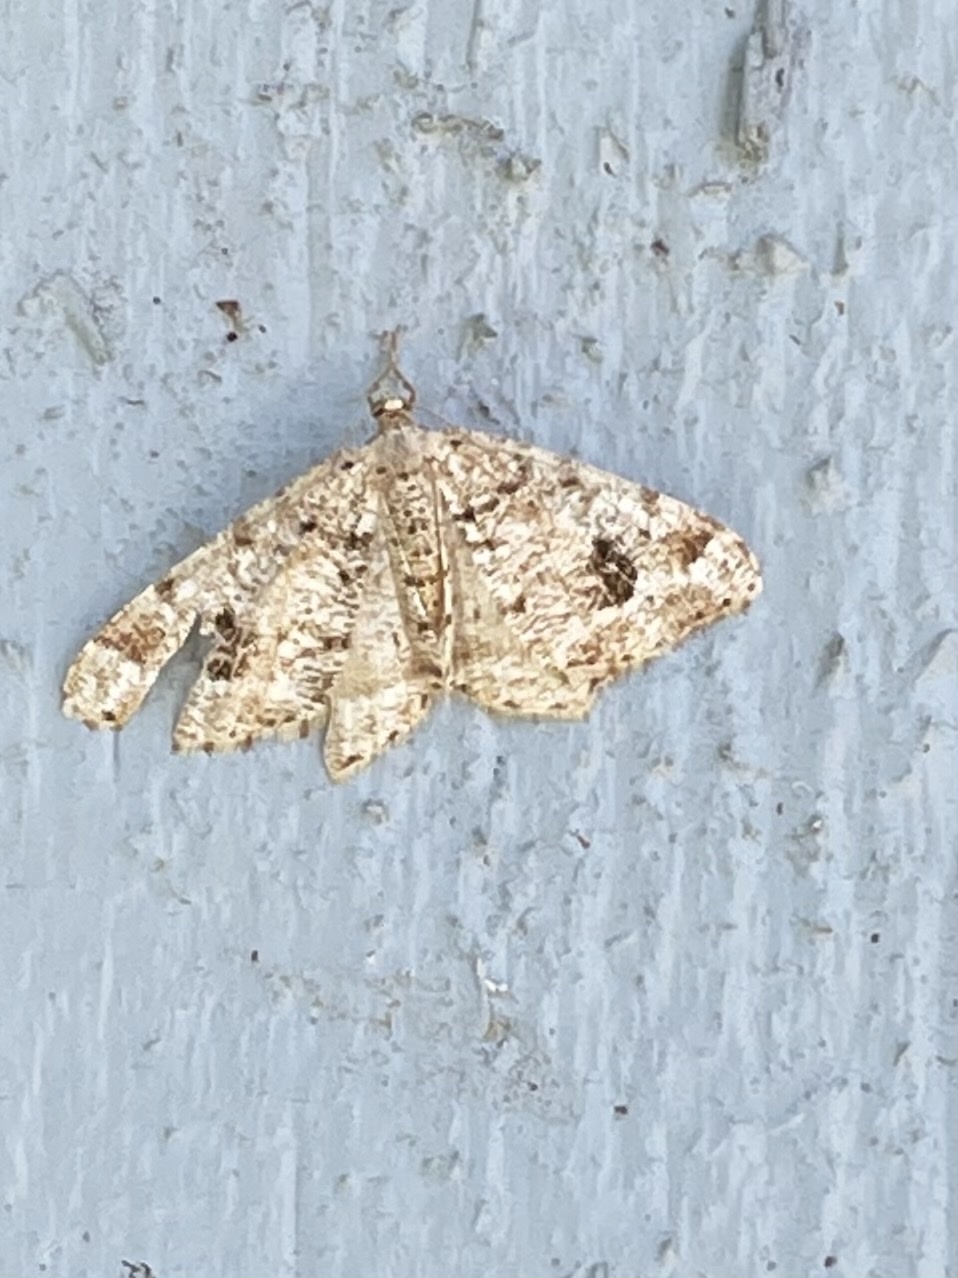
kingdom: Animalia
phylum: Arthropoda
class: Insecta
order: Lepidoptera
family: Geometridae
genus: Macaria
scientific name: Macaria signaria
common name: Dusky peacock
